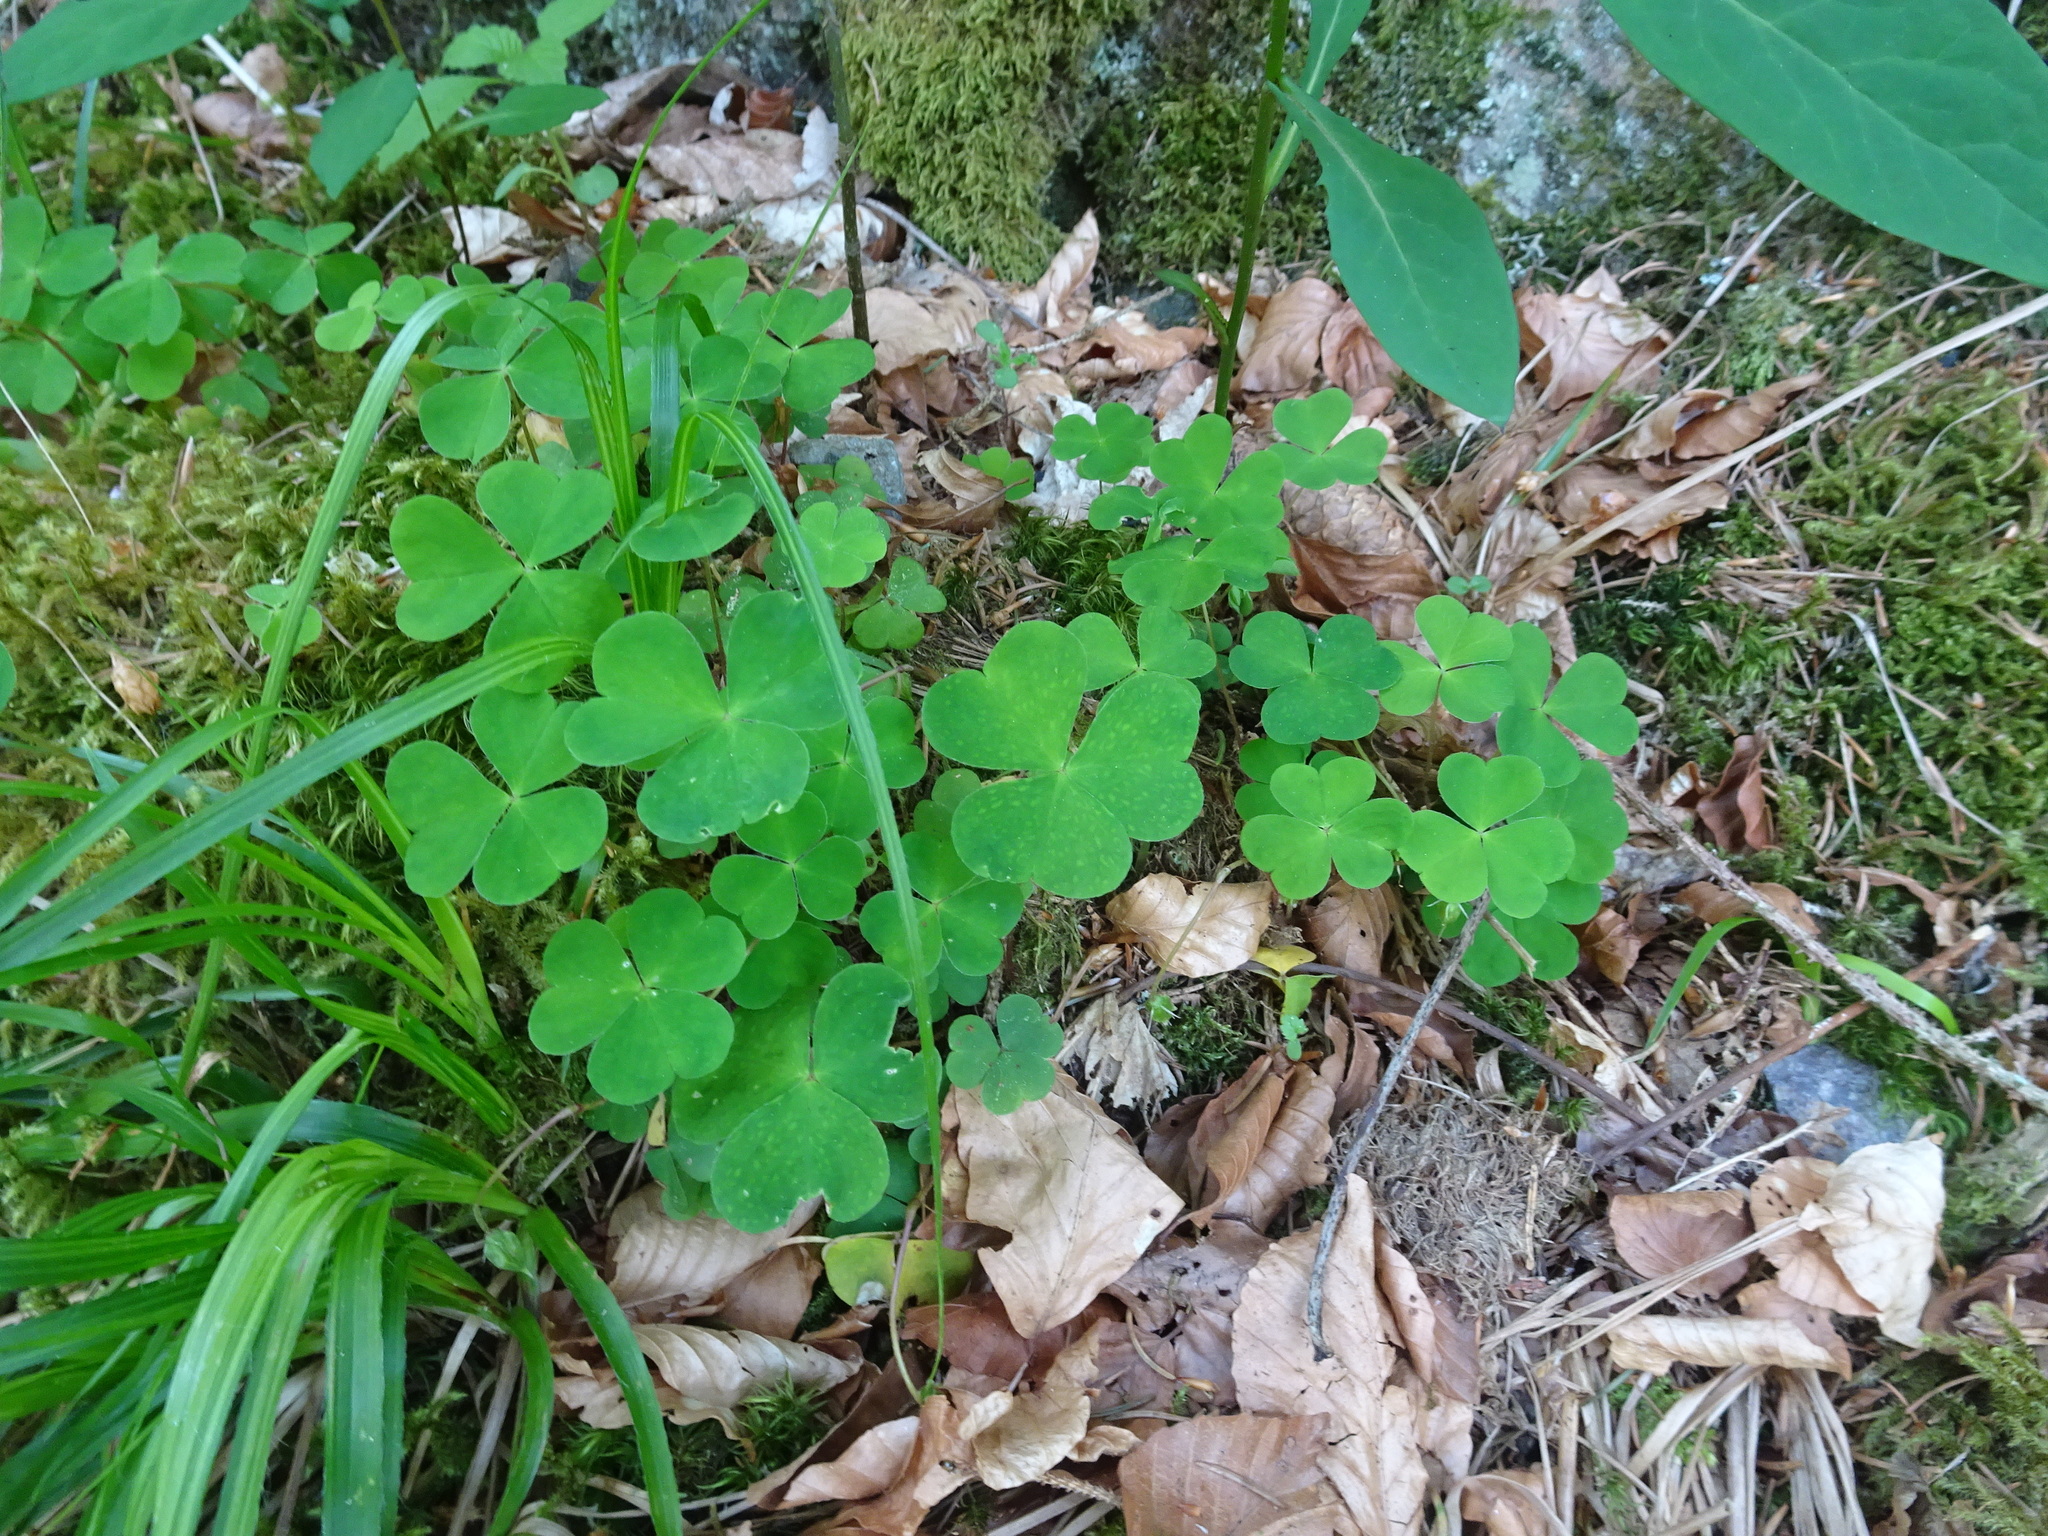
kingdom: Plantae
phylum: Tracheophyta
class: Magnoliopsida
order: Oxalidales
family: Oxalidaceae
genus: Oxalis
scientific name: Oxalis acetosella
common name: Wood-sorrel
